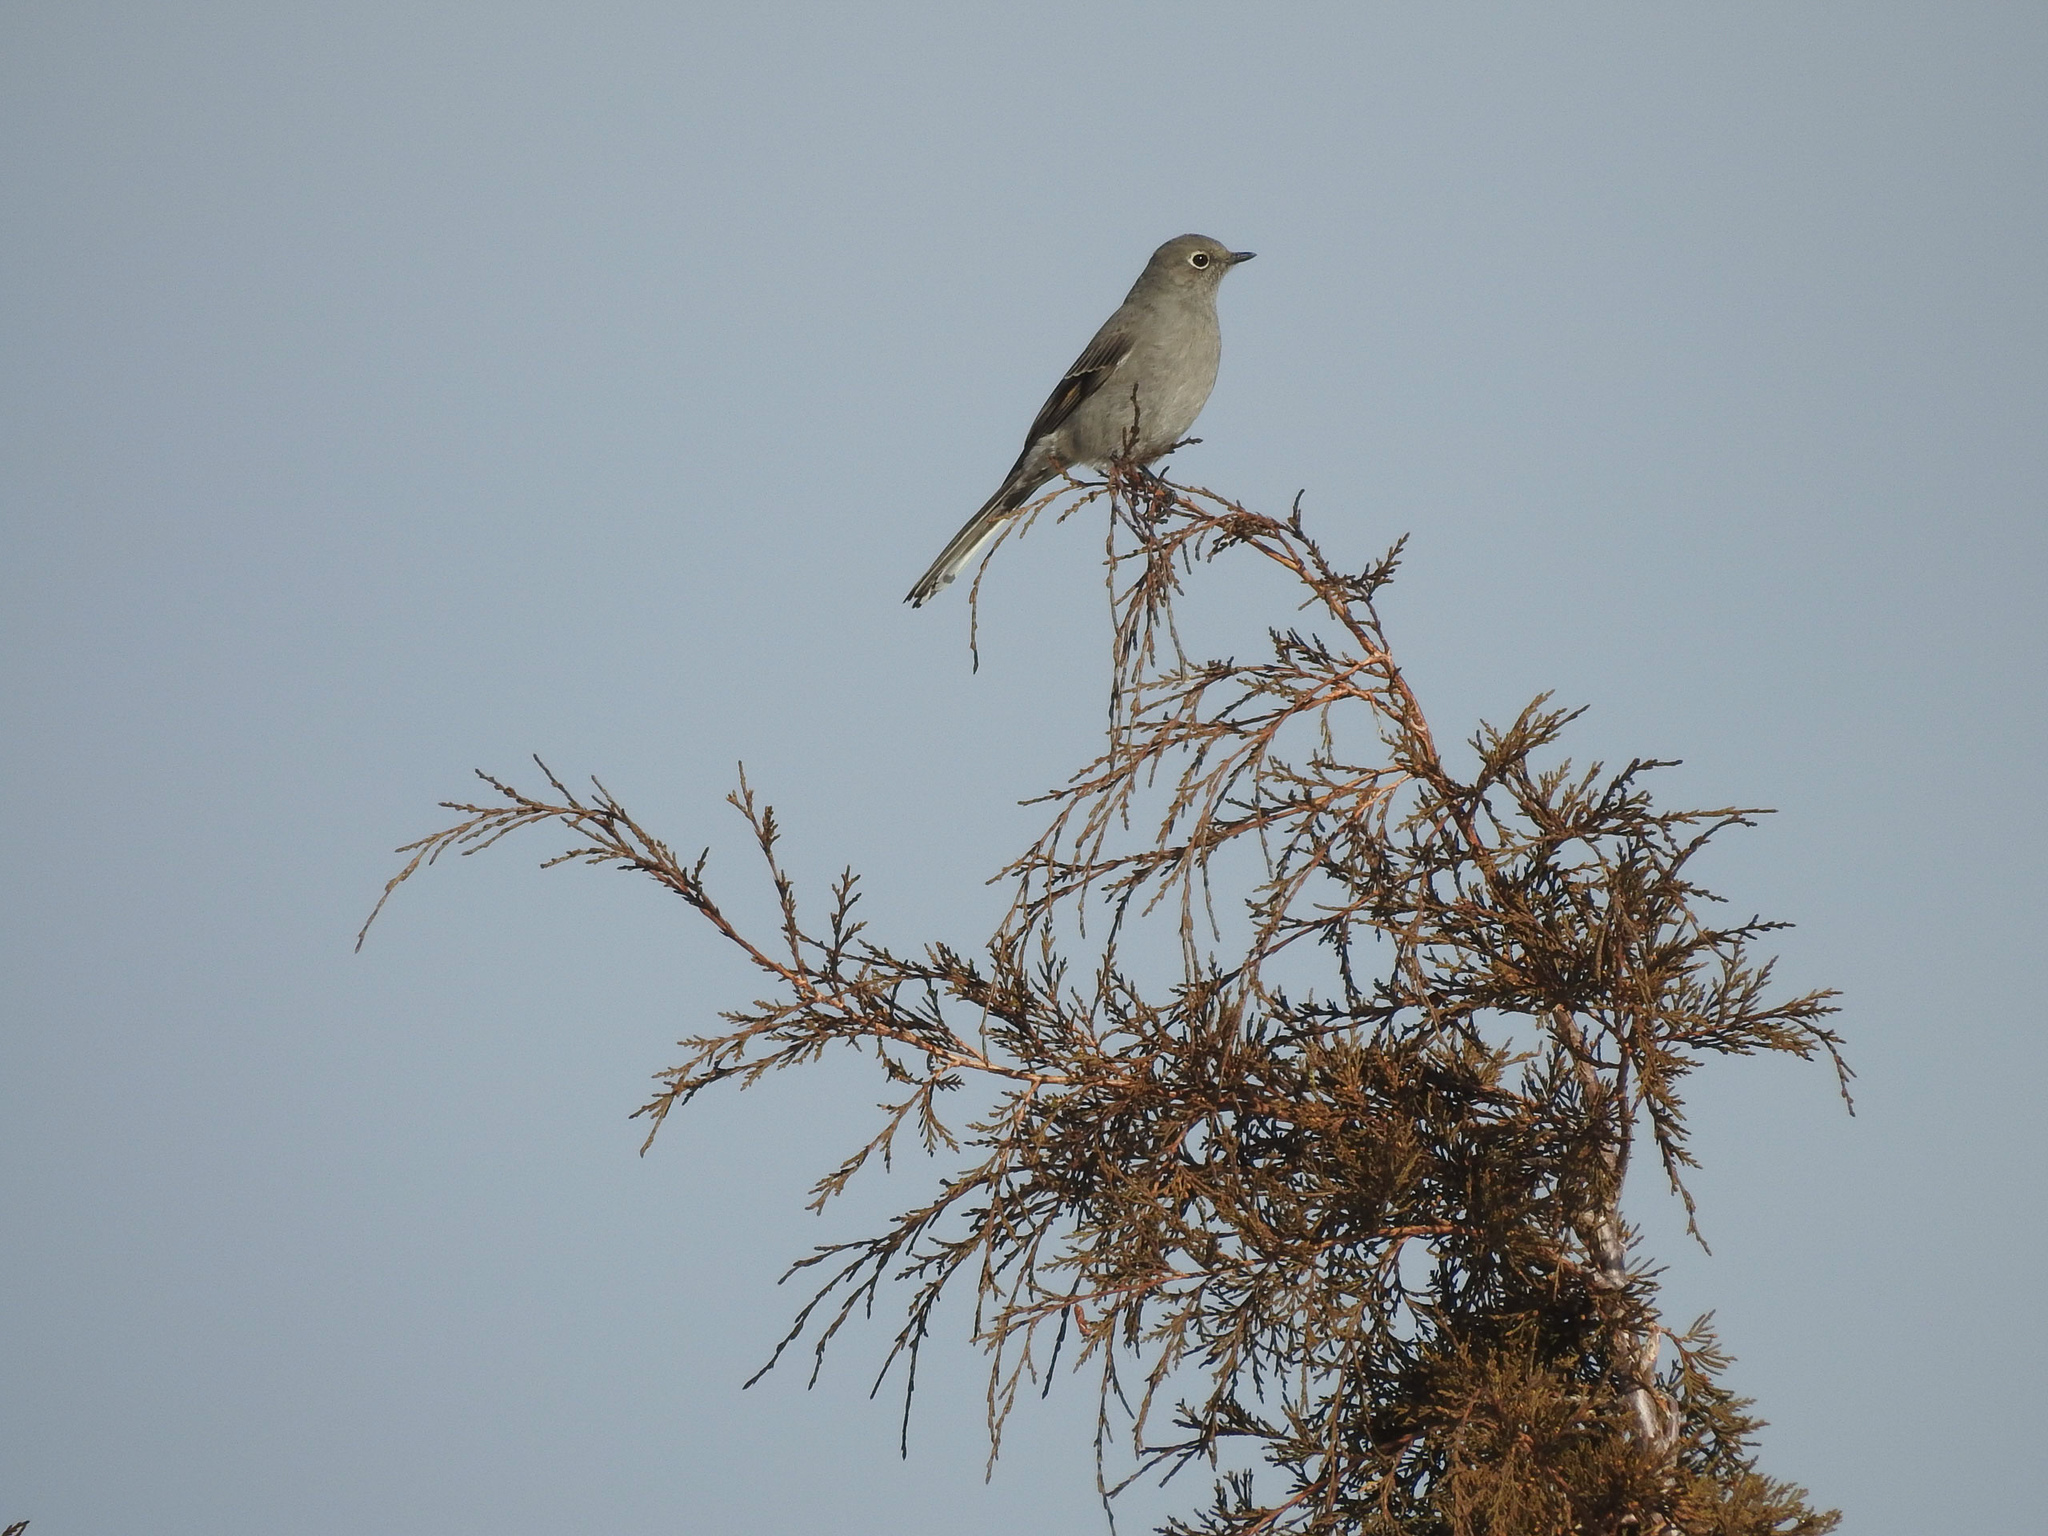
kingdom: Animalia
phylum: Chordata
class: Aves
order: Passeriformes
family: Turdidae
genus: Myadestes
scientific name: Myadestes townsendi
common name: Townsend's solitaire
